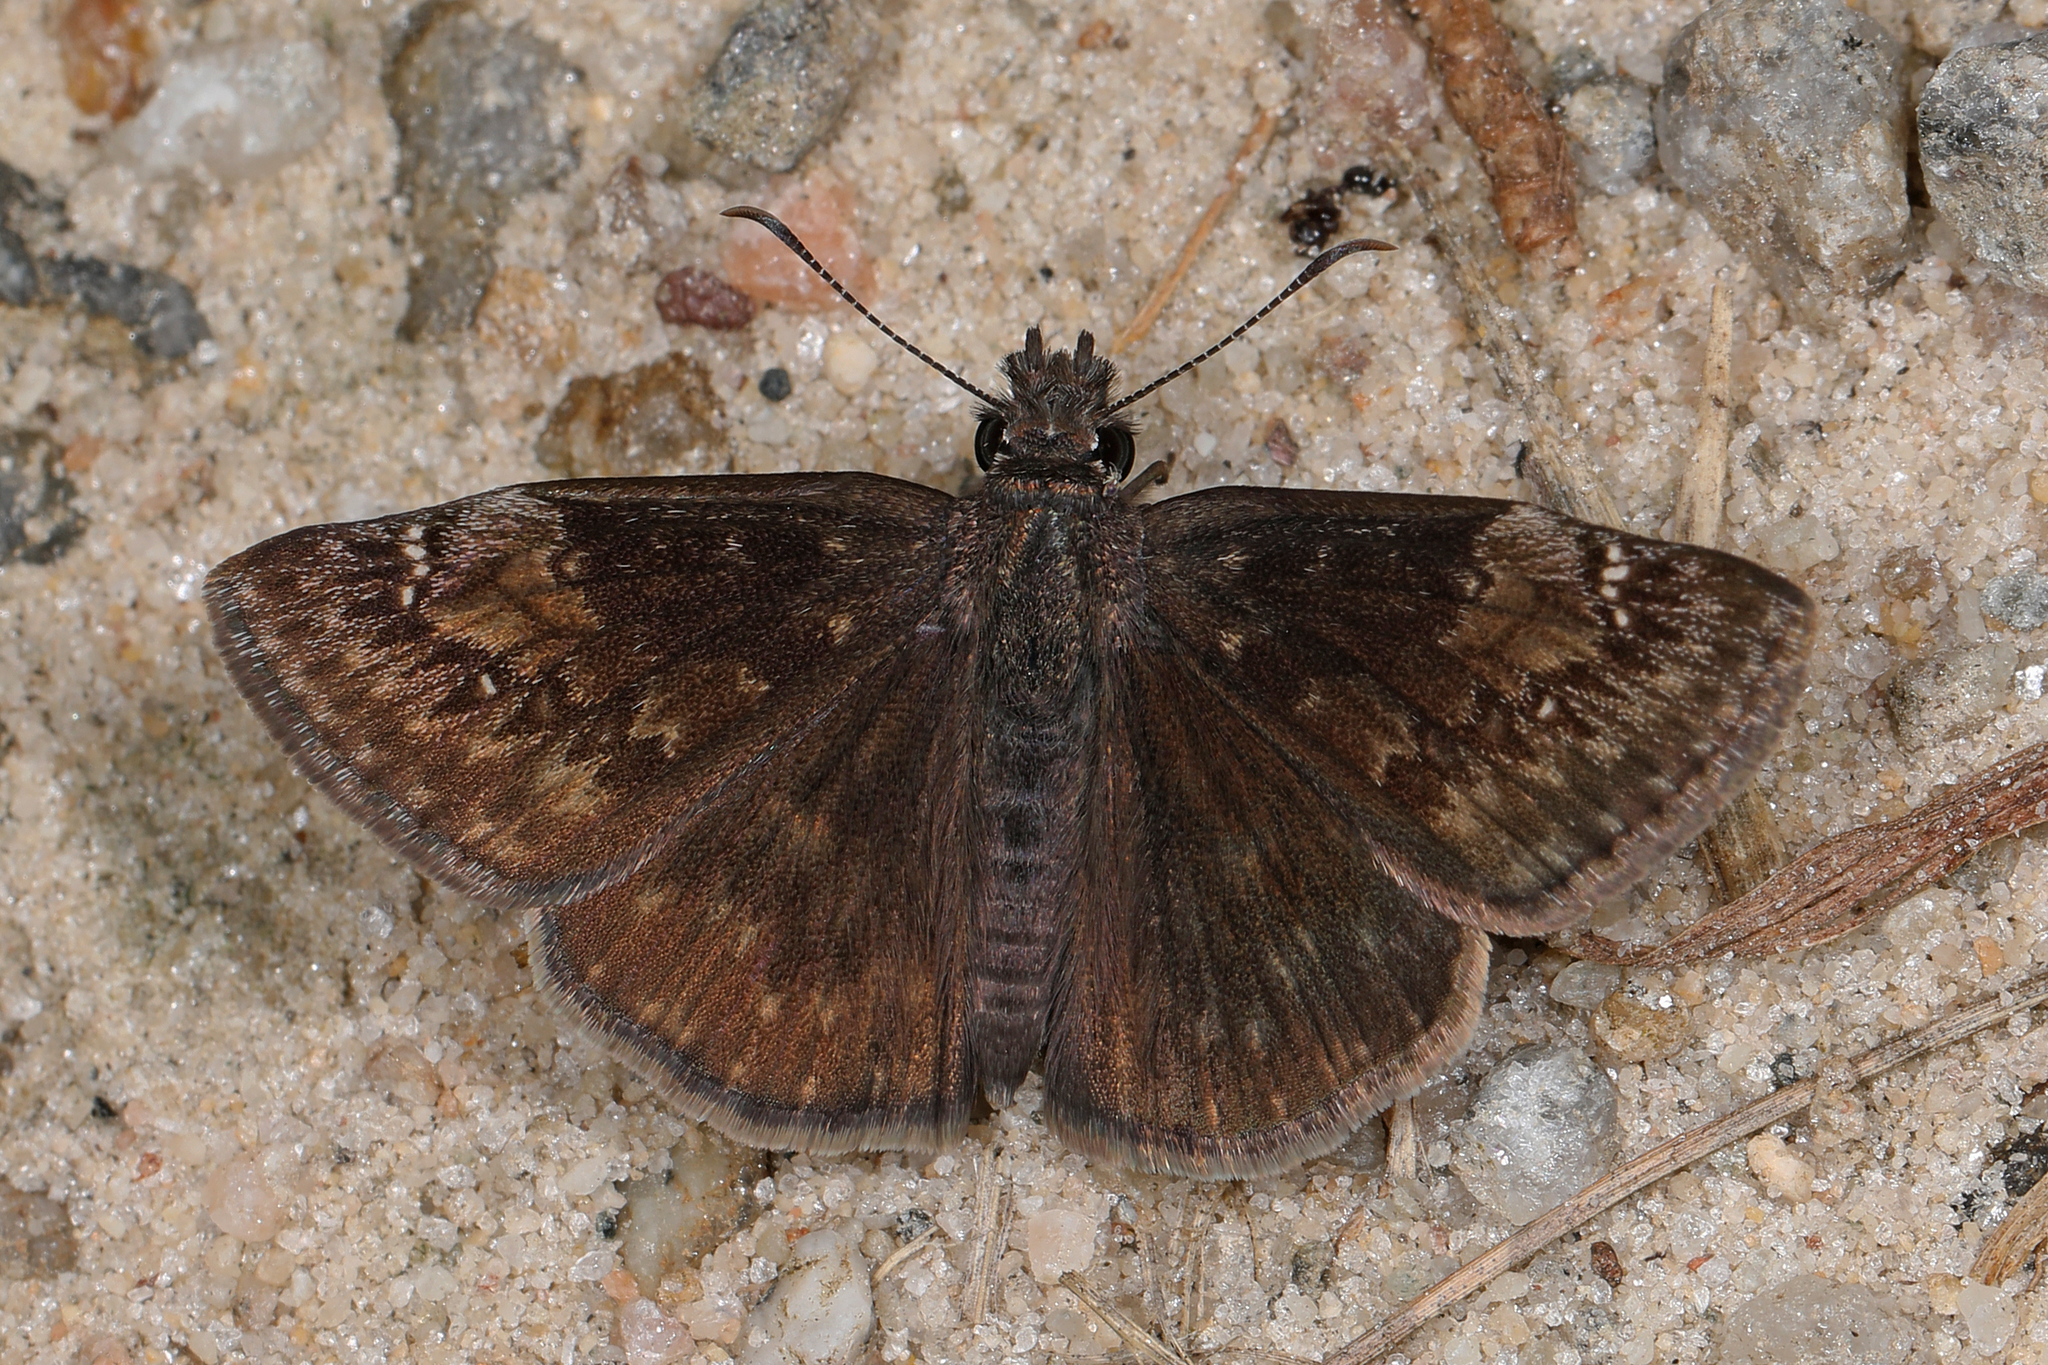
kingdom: Animalia
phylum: Arthropoda
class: Insecta
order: Lepidoptera
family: Hesperiidae
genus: Erynnis
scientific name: Erynnis baptisiae
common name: Wild indigo duskywing
